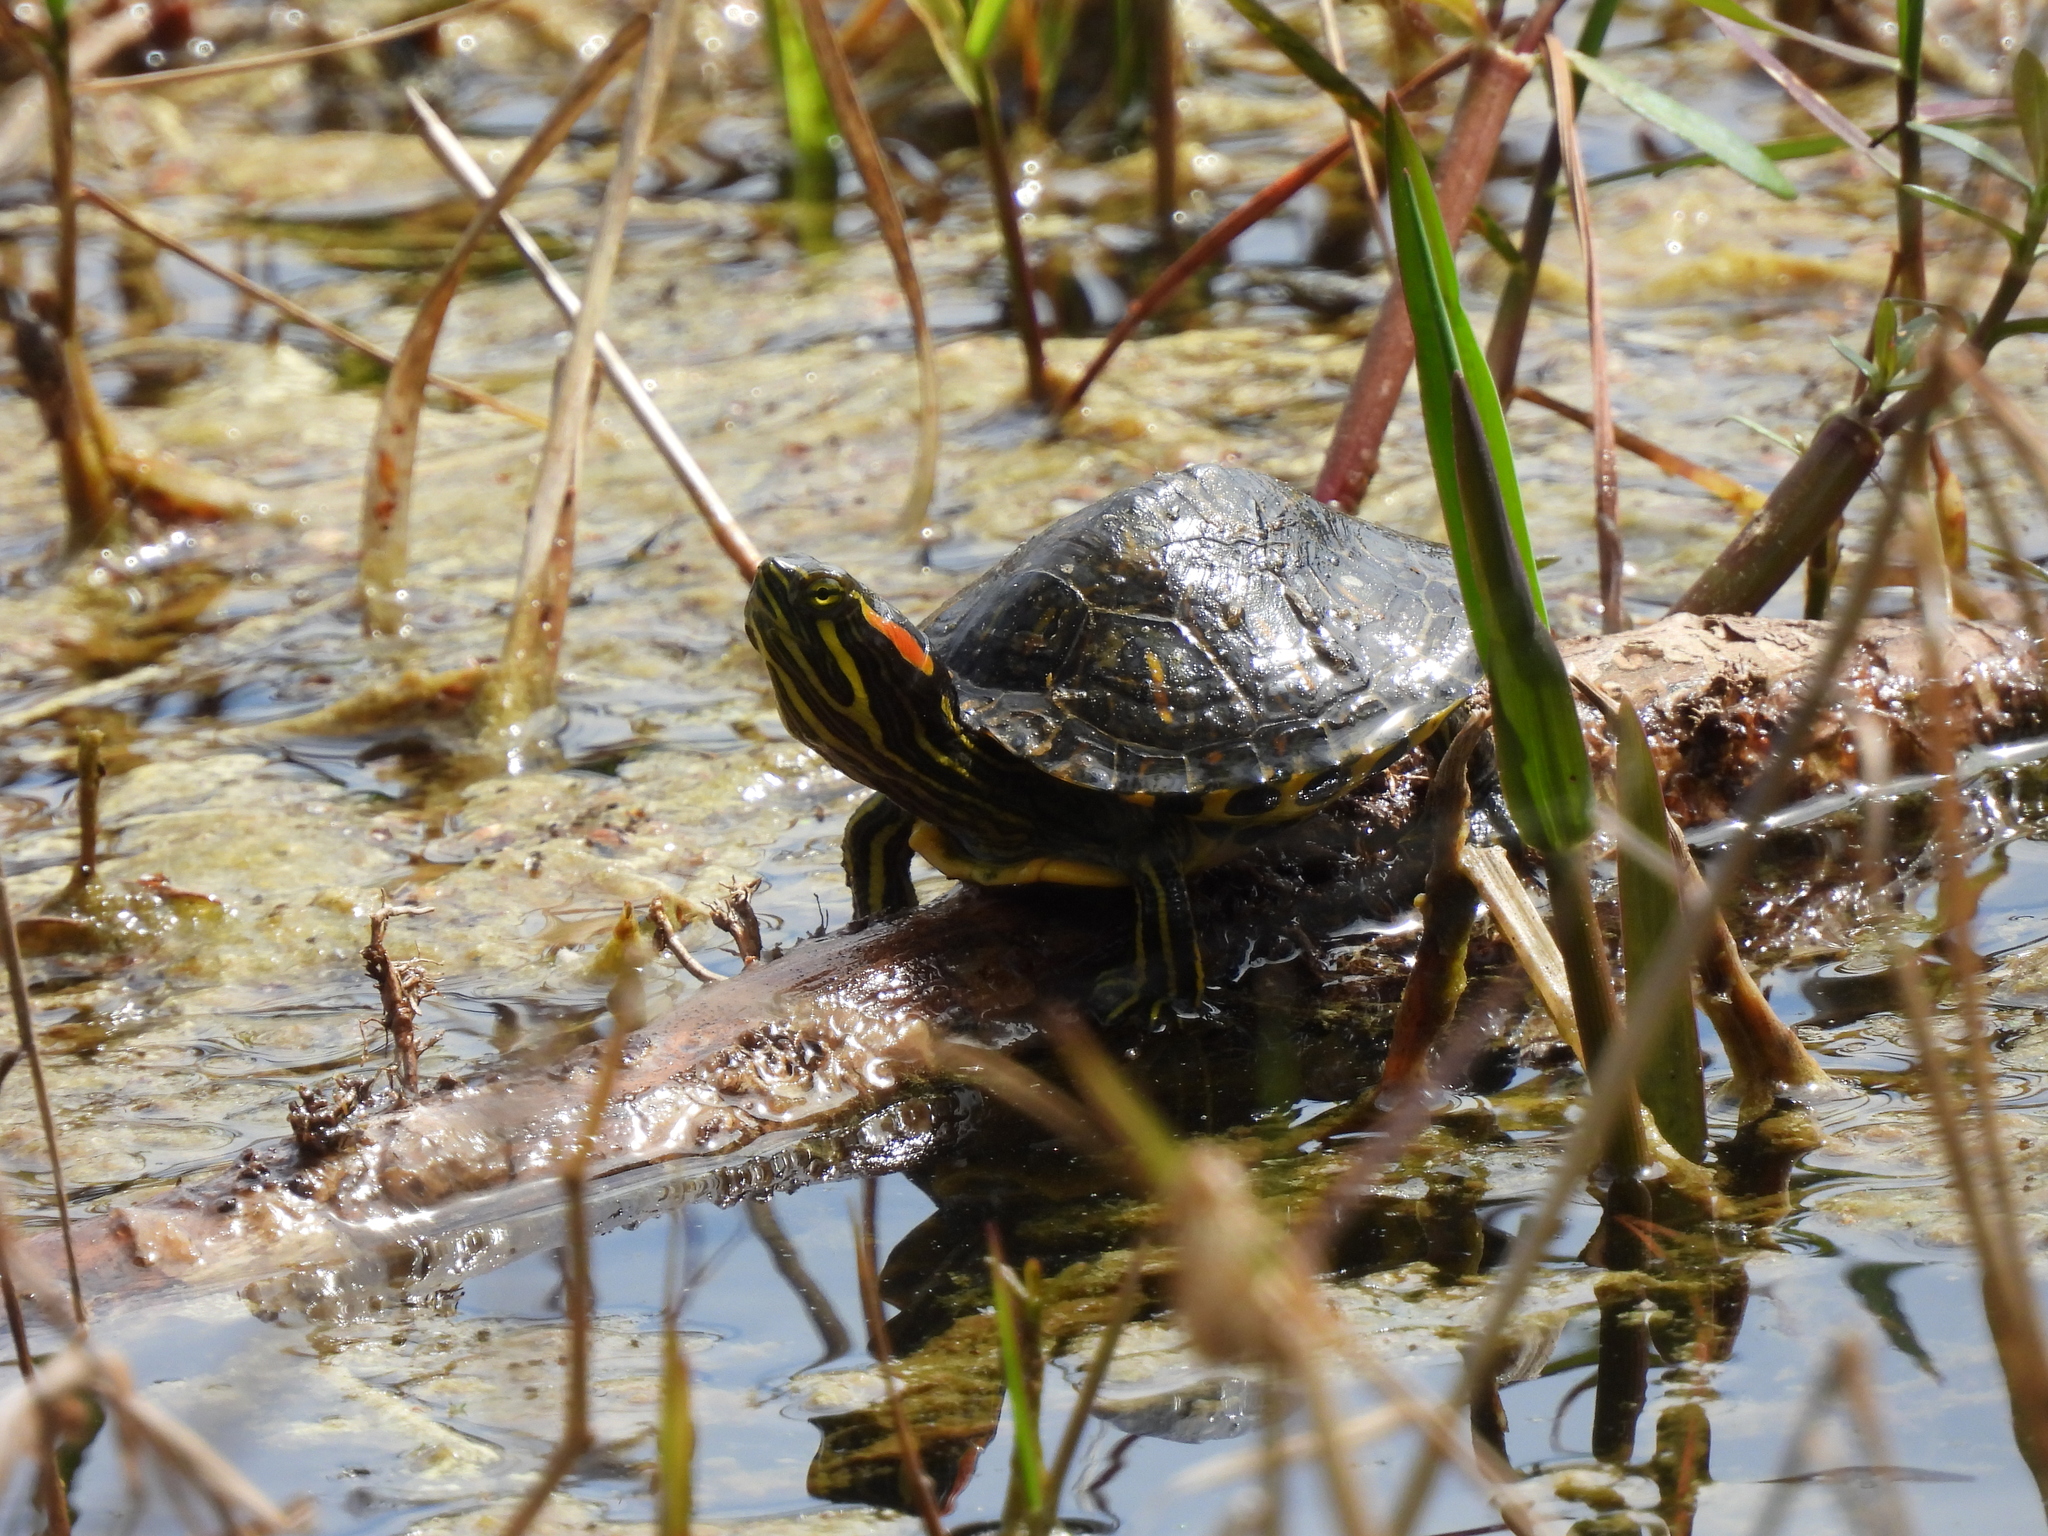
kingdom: Animalia
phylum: Chordata
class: Testudines
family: Emydidae
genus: Trachemys
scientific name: Trachemys scripta
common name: Slider
